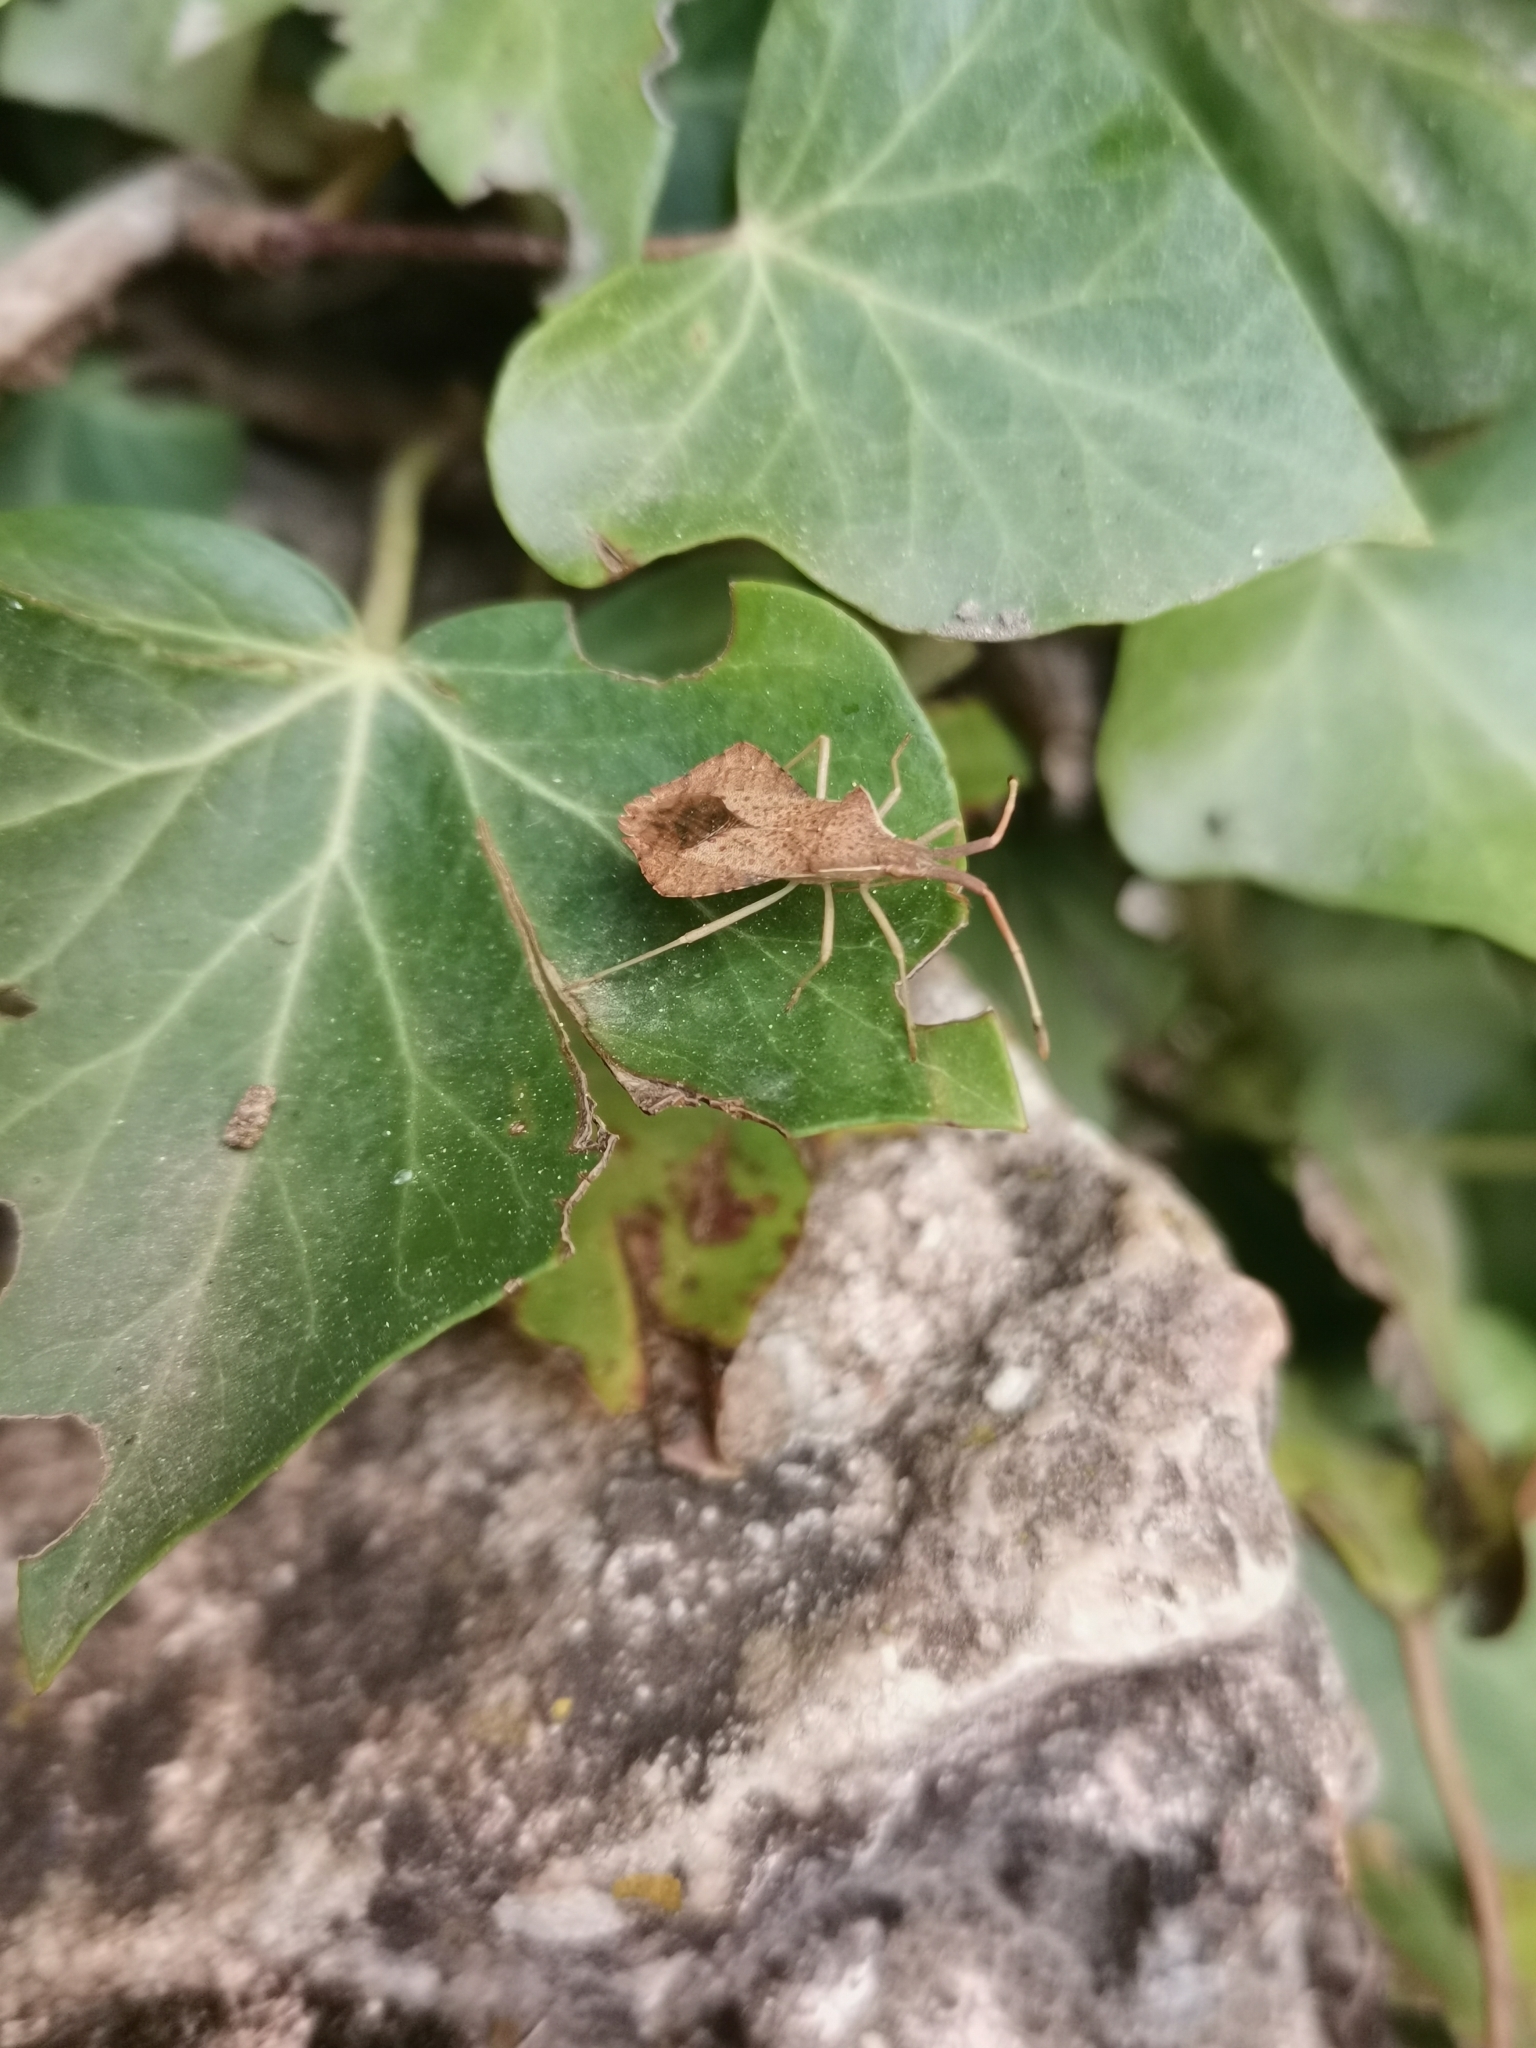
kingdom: Animalia
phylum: Arthropoda
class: Insecta
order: Hemiptera
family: Coreidae
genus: Syromastus
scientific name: Syromastus rhombeus
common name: Rhombic leatherbug
